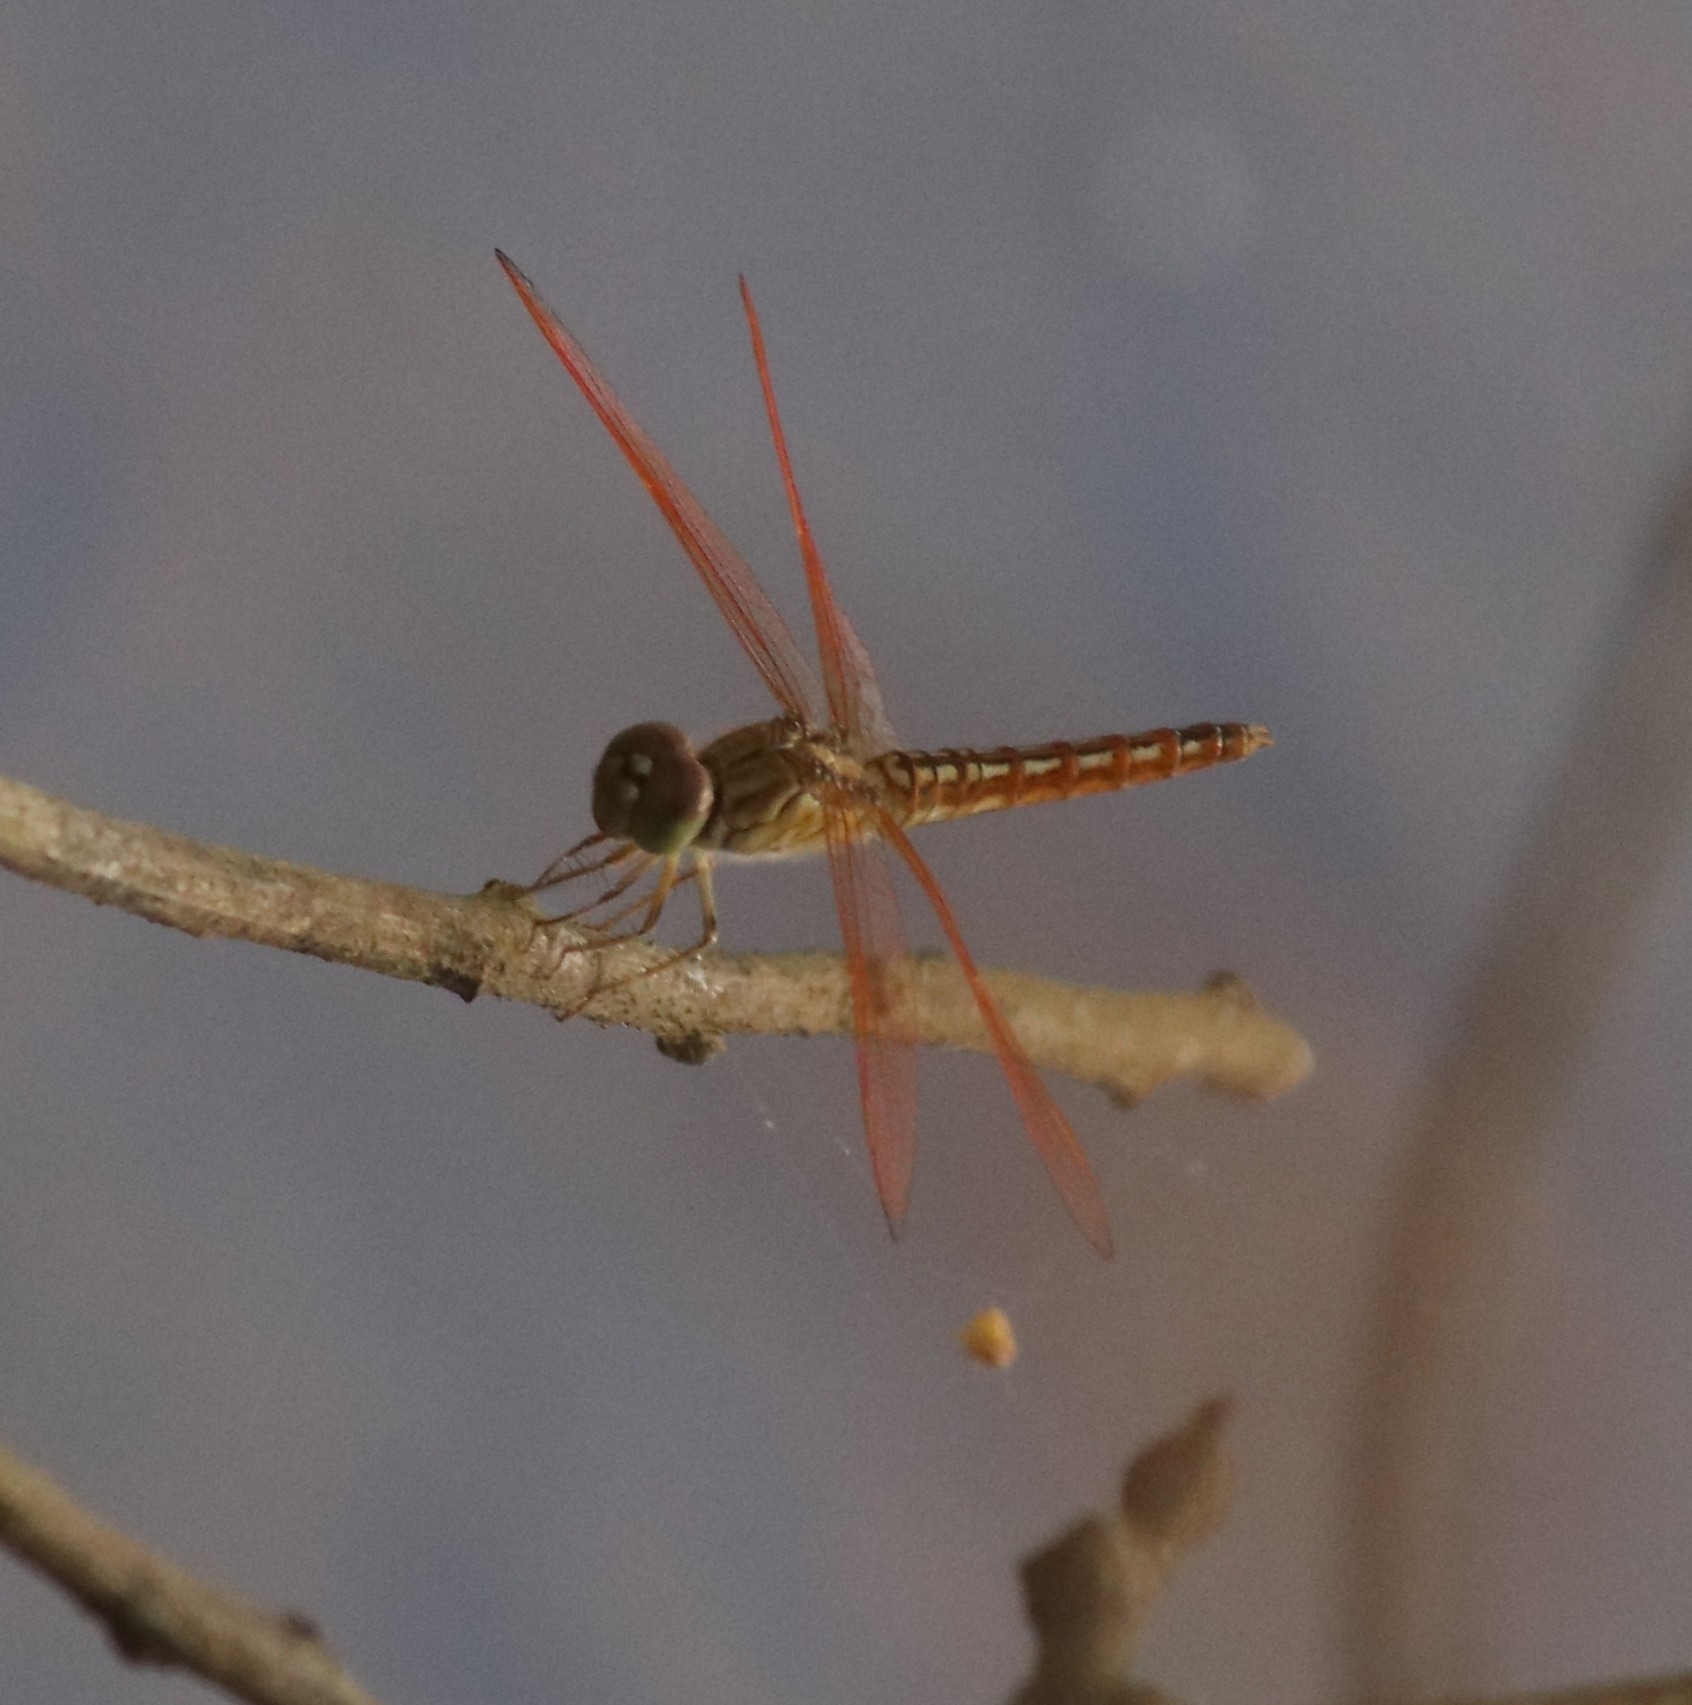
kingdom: Animalia
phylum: Arthropoda
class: Insecta
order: Odonata
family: Libellulidae
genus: Brachythemis
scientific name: Brachythemis contaminata
